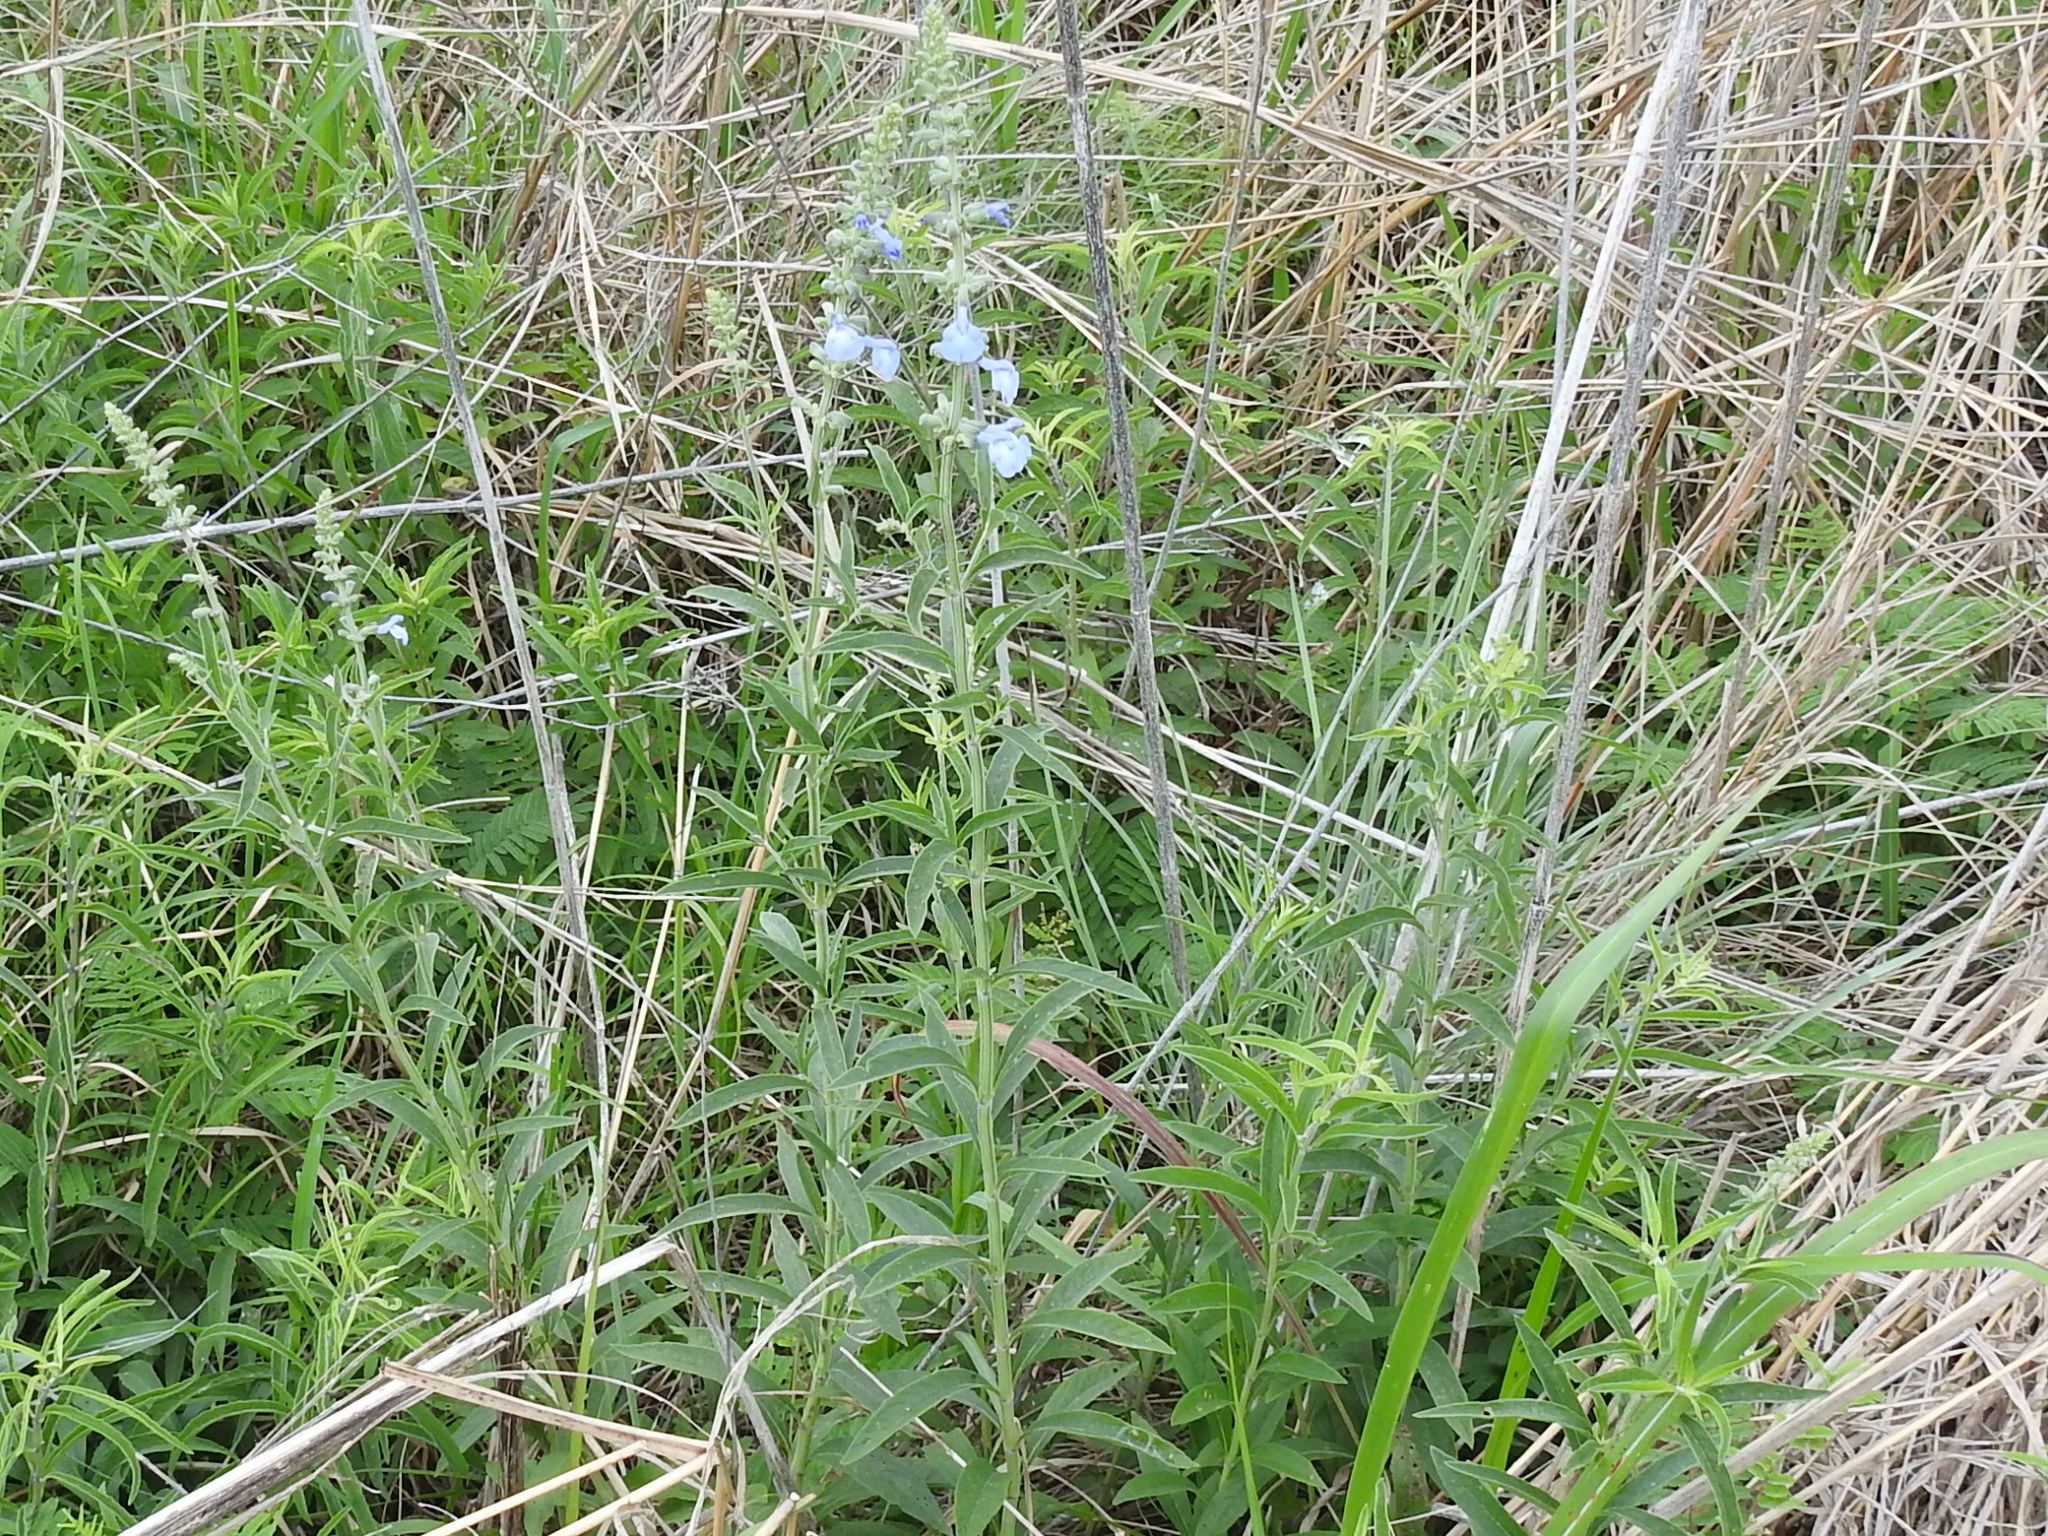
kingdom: Plantae
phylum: Tracheophyta
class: Magnoliopsida
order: Lamiales
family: Lamiaceae
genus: Salvia
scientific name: Salvia azurea
